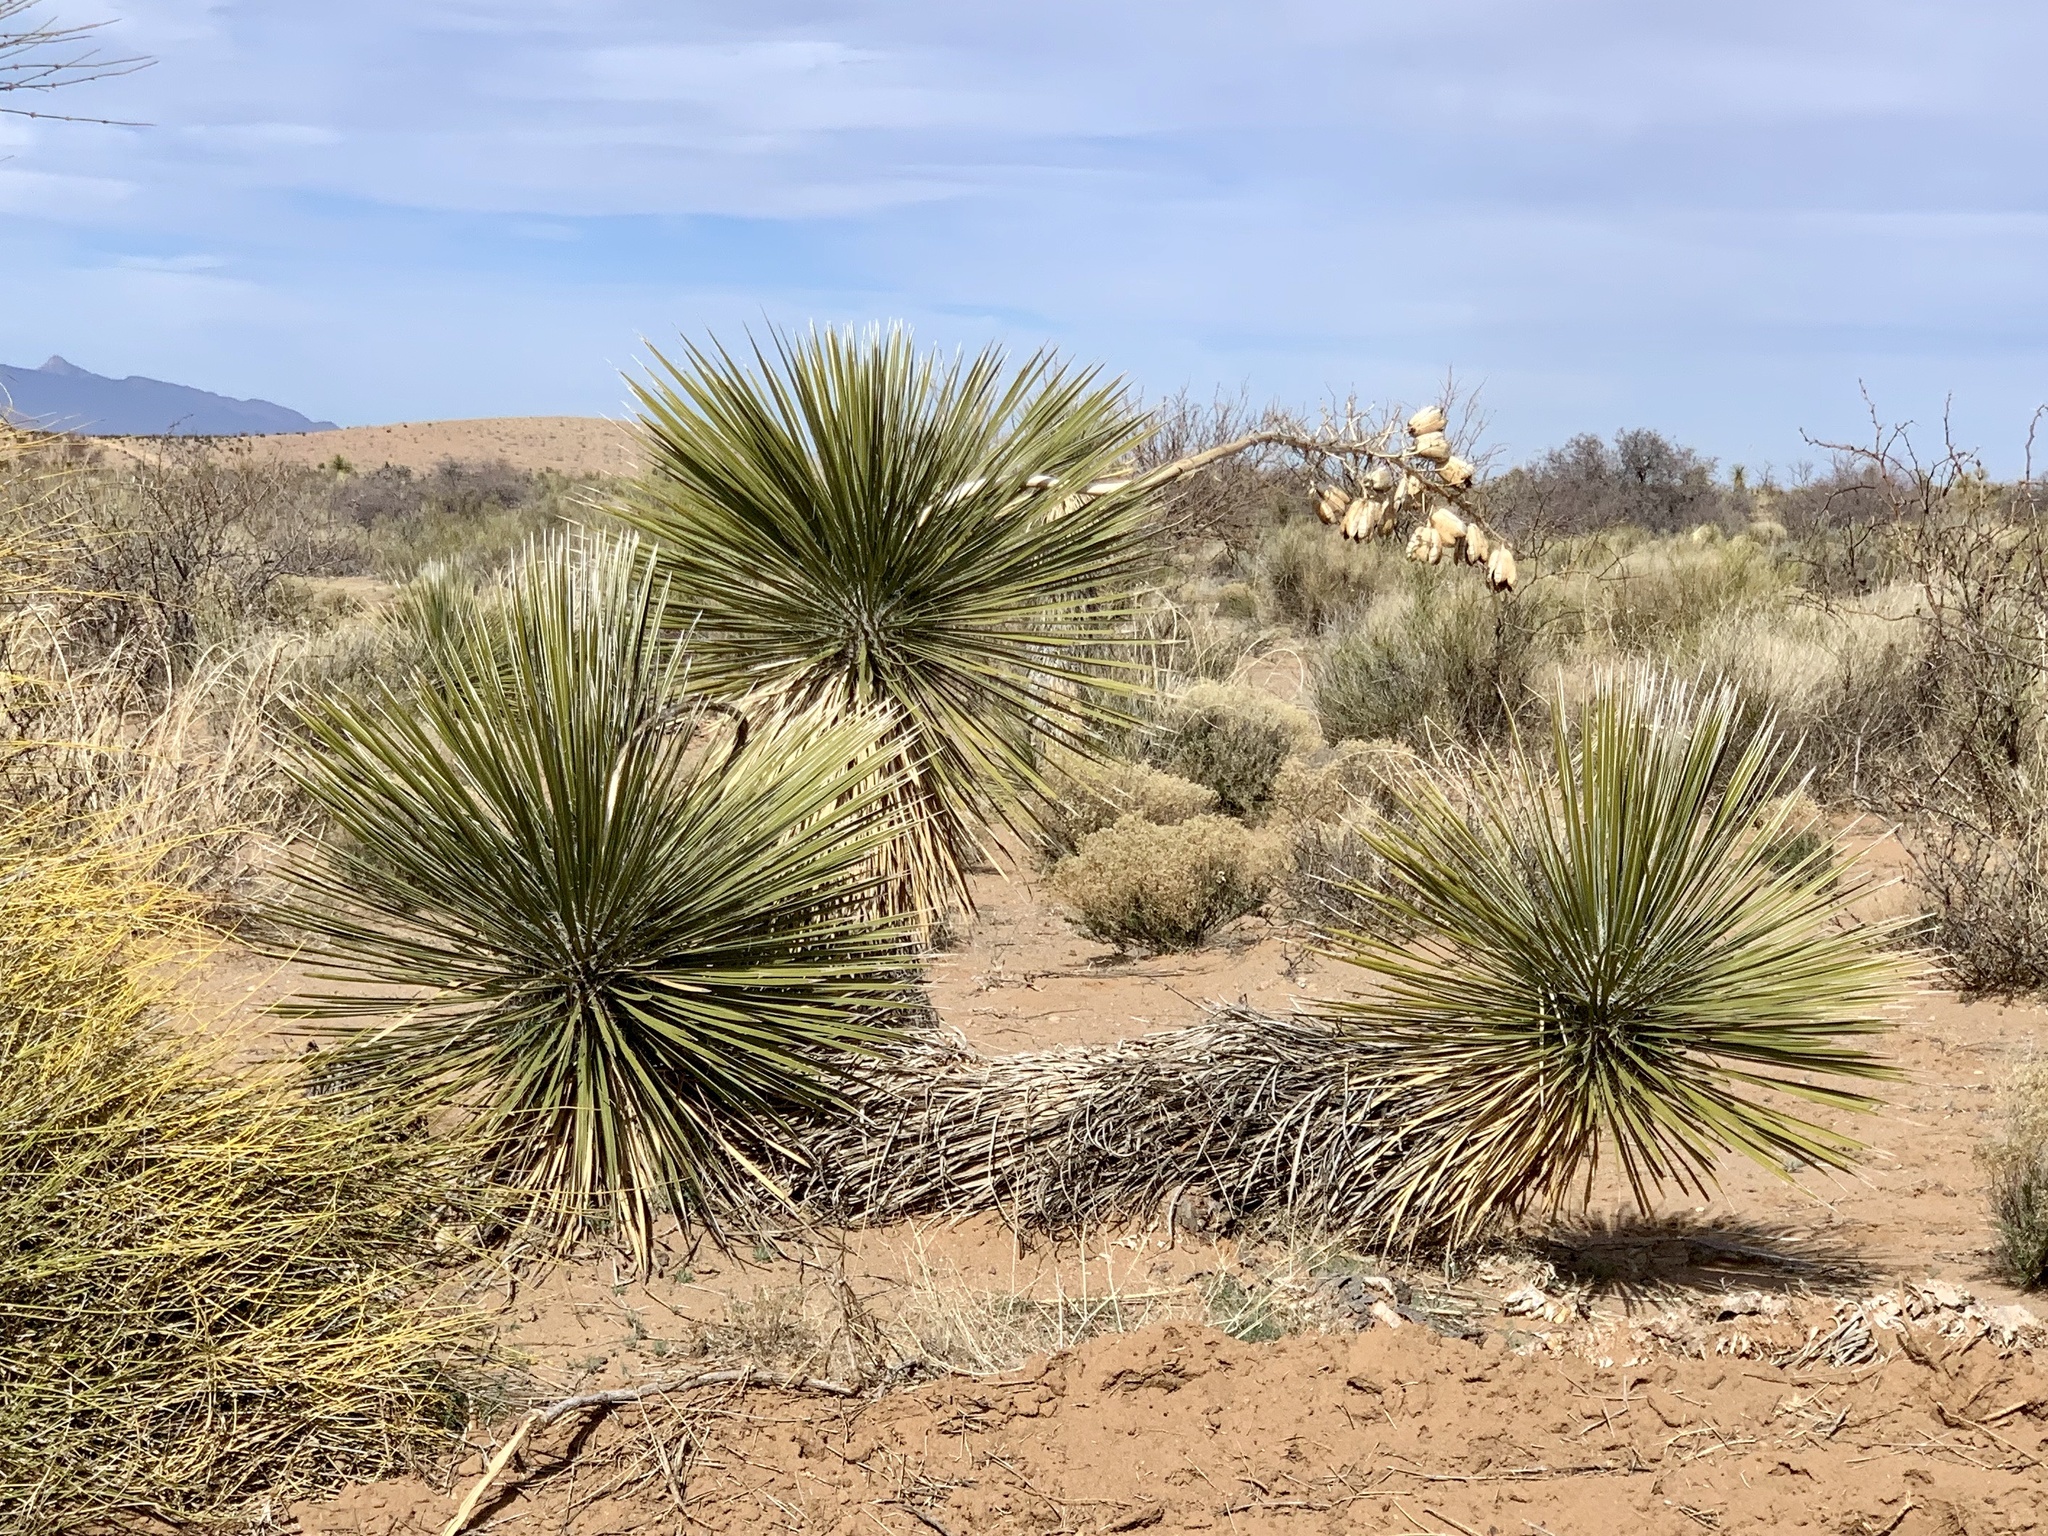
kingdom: Plantae
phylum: Tracheophyta
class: Liliopsida
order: Asparagales
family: Asparagaceae
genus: Yucca
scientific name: Yucca elata
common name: Palmella
